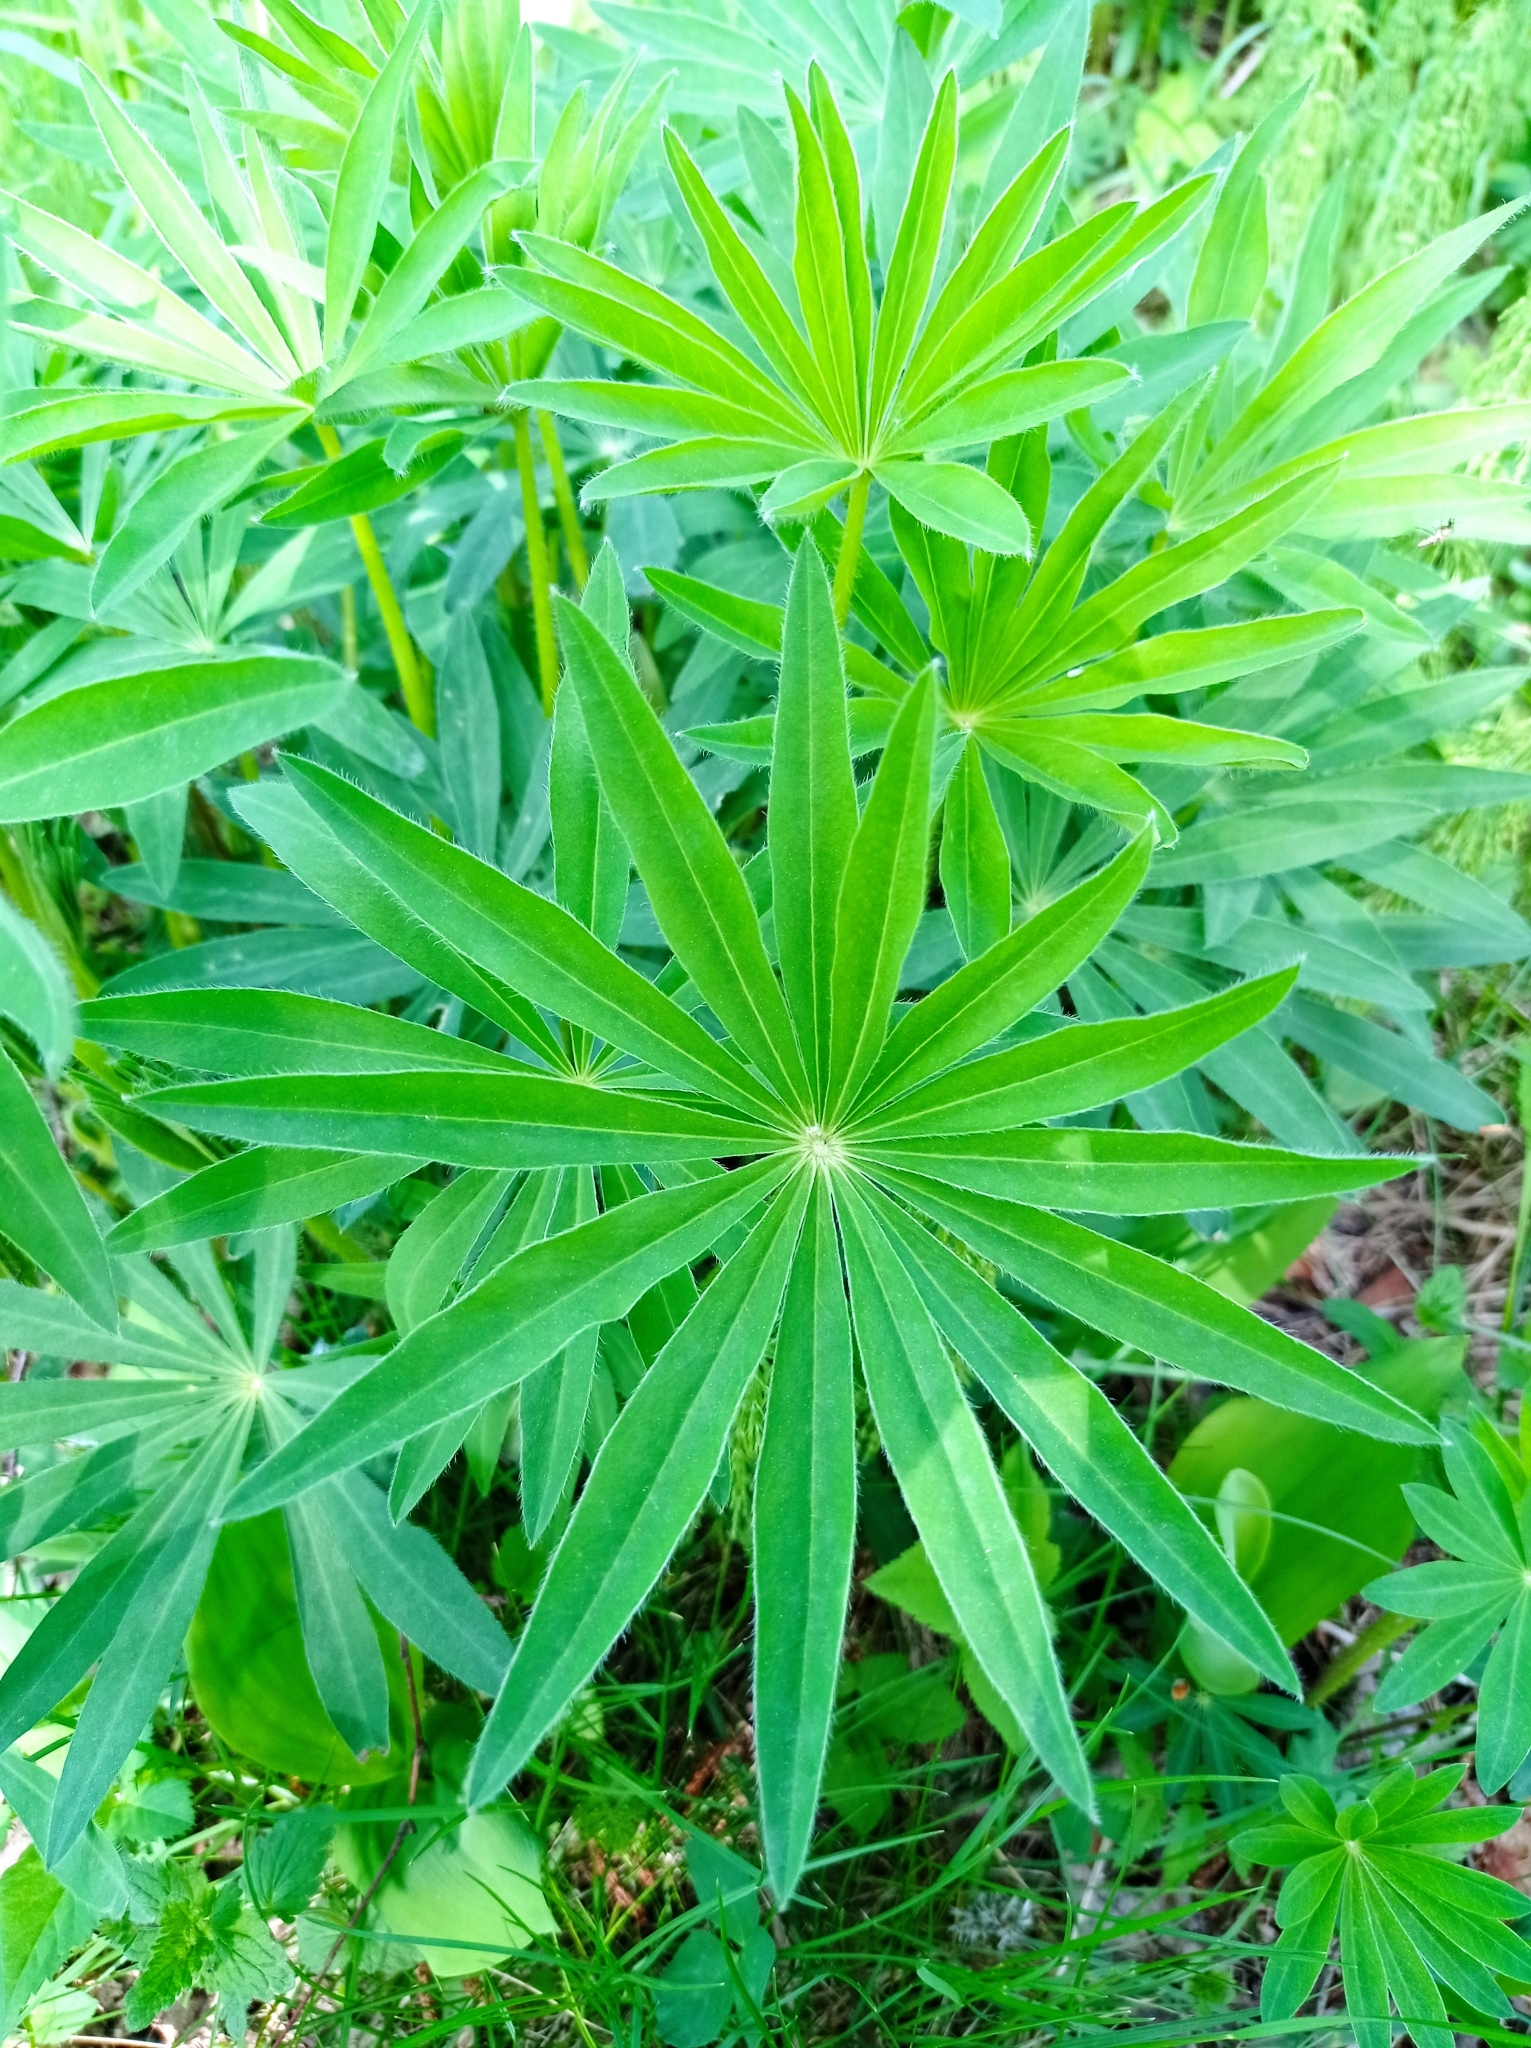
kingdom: Plantae
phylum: Tracheophyta
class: Magnoliopsida
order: Fabales
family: Fabaceae
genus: Lupinus
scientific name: Lupinus polyphyllus
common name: Garden lupin
